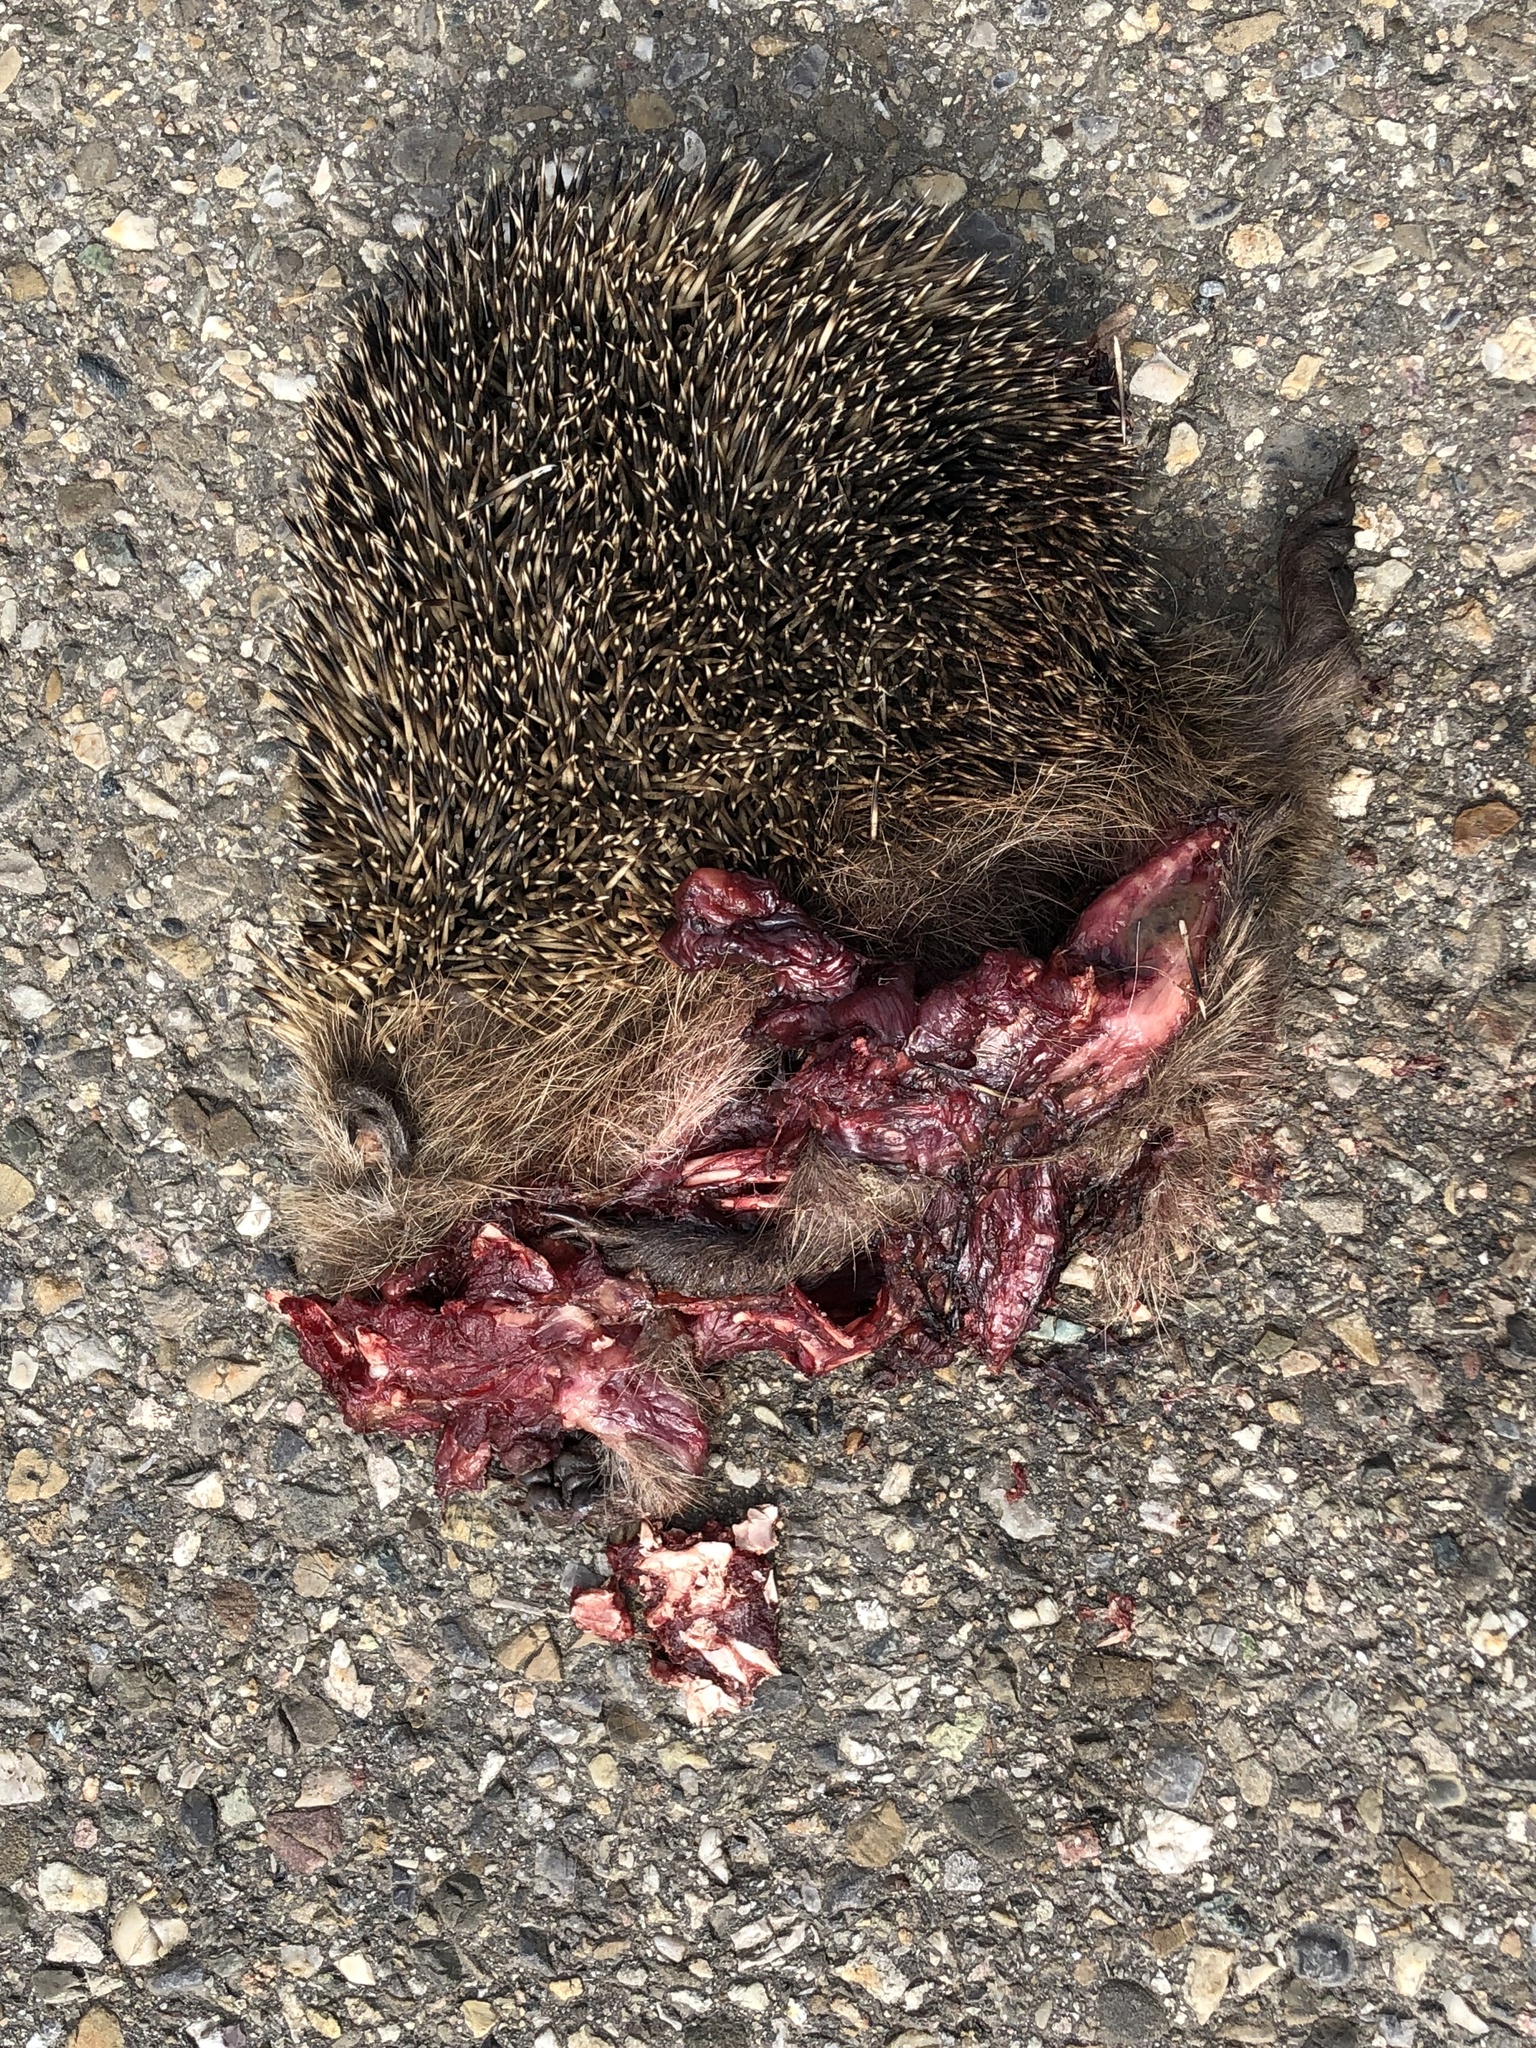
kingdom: Animalia
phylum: Chordata
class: Mammalia
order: Erinaceomorpha
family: Erinaceidae
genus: Erinaceus
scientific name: Erinaceus europaeus
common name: West european hedgehog
